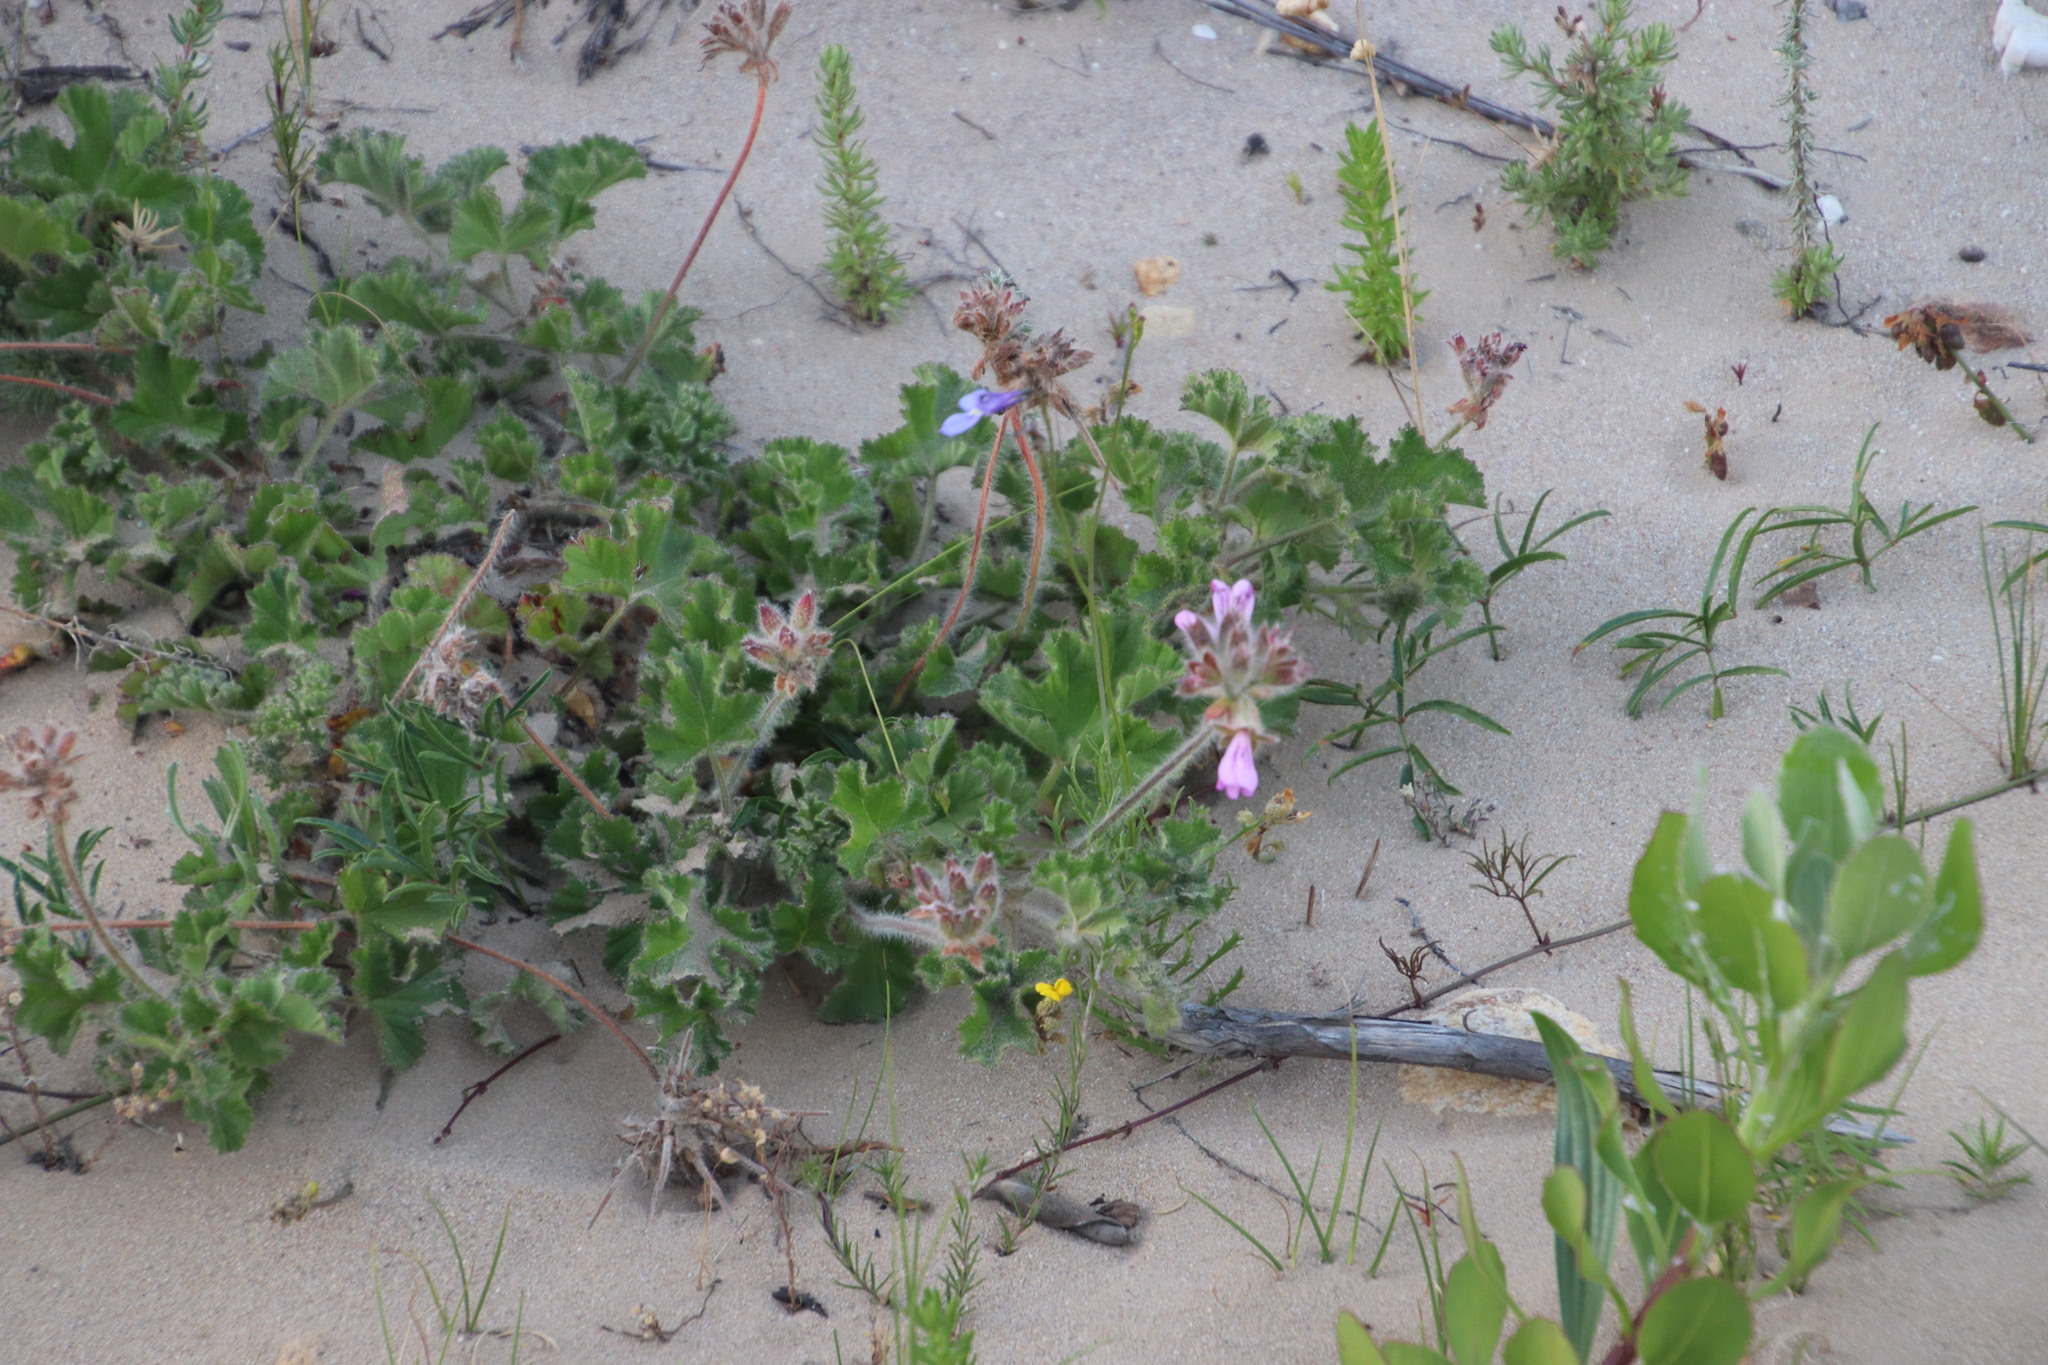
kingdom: Plantae
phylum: Tracheophyta
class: Magnoliopsida
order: Geraniales
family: Geraniaceae
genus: Pelargonium
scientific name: Pelargonium capitatum
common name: Rose scented geranium
